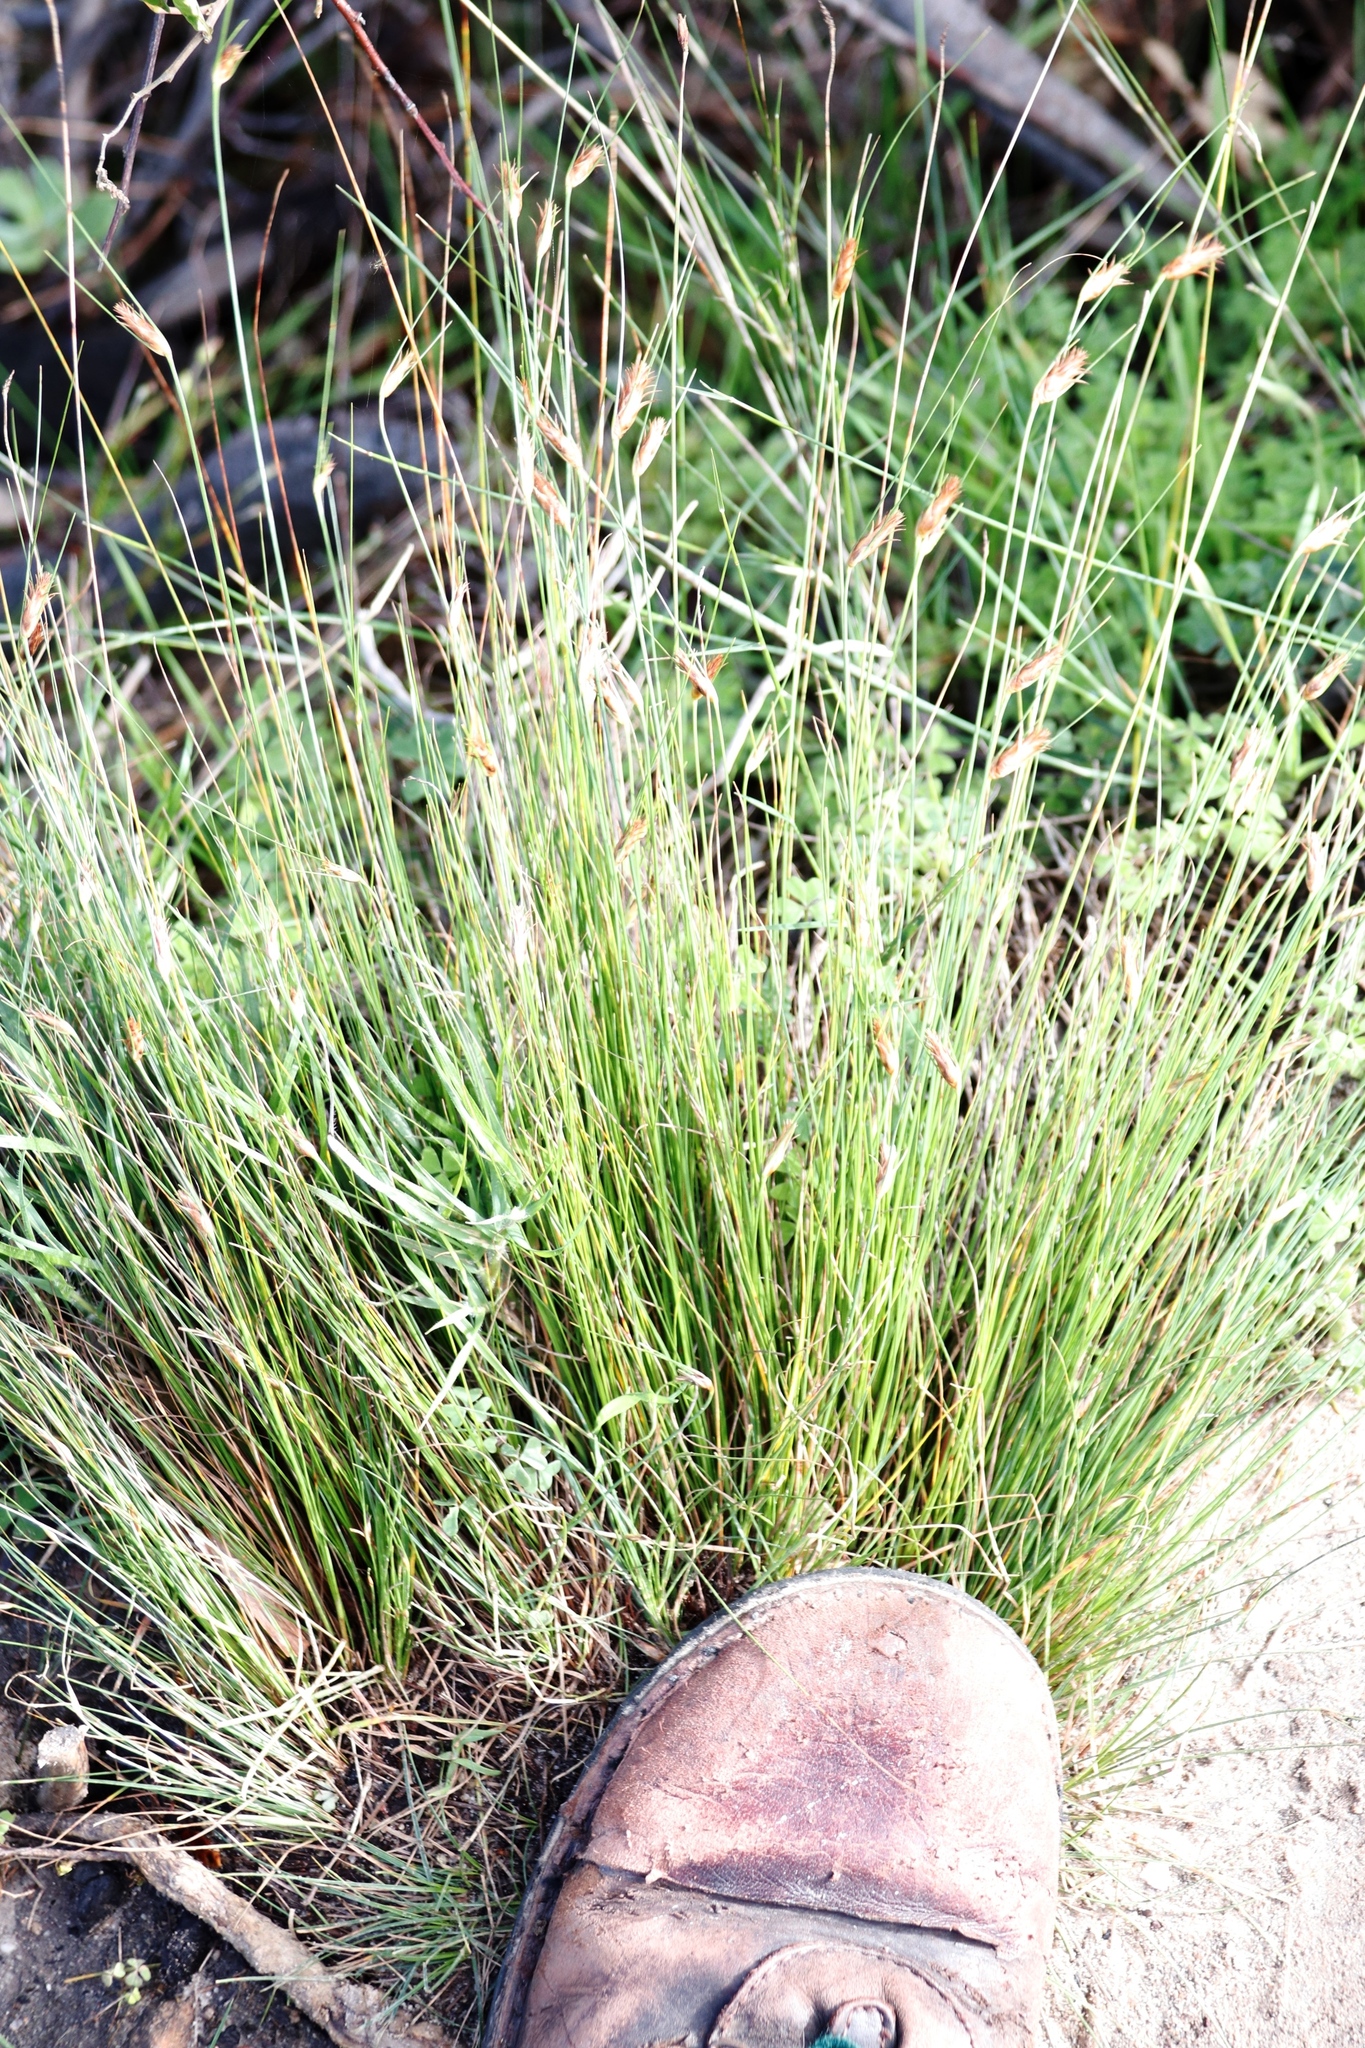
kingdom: Plantae
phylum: Tracheophyta
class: Liliopsida
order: Poales
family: Cyperaceae
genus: Ficinia
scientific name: Ficinia nigrescens
